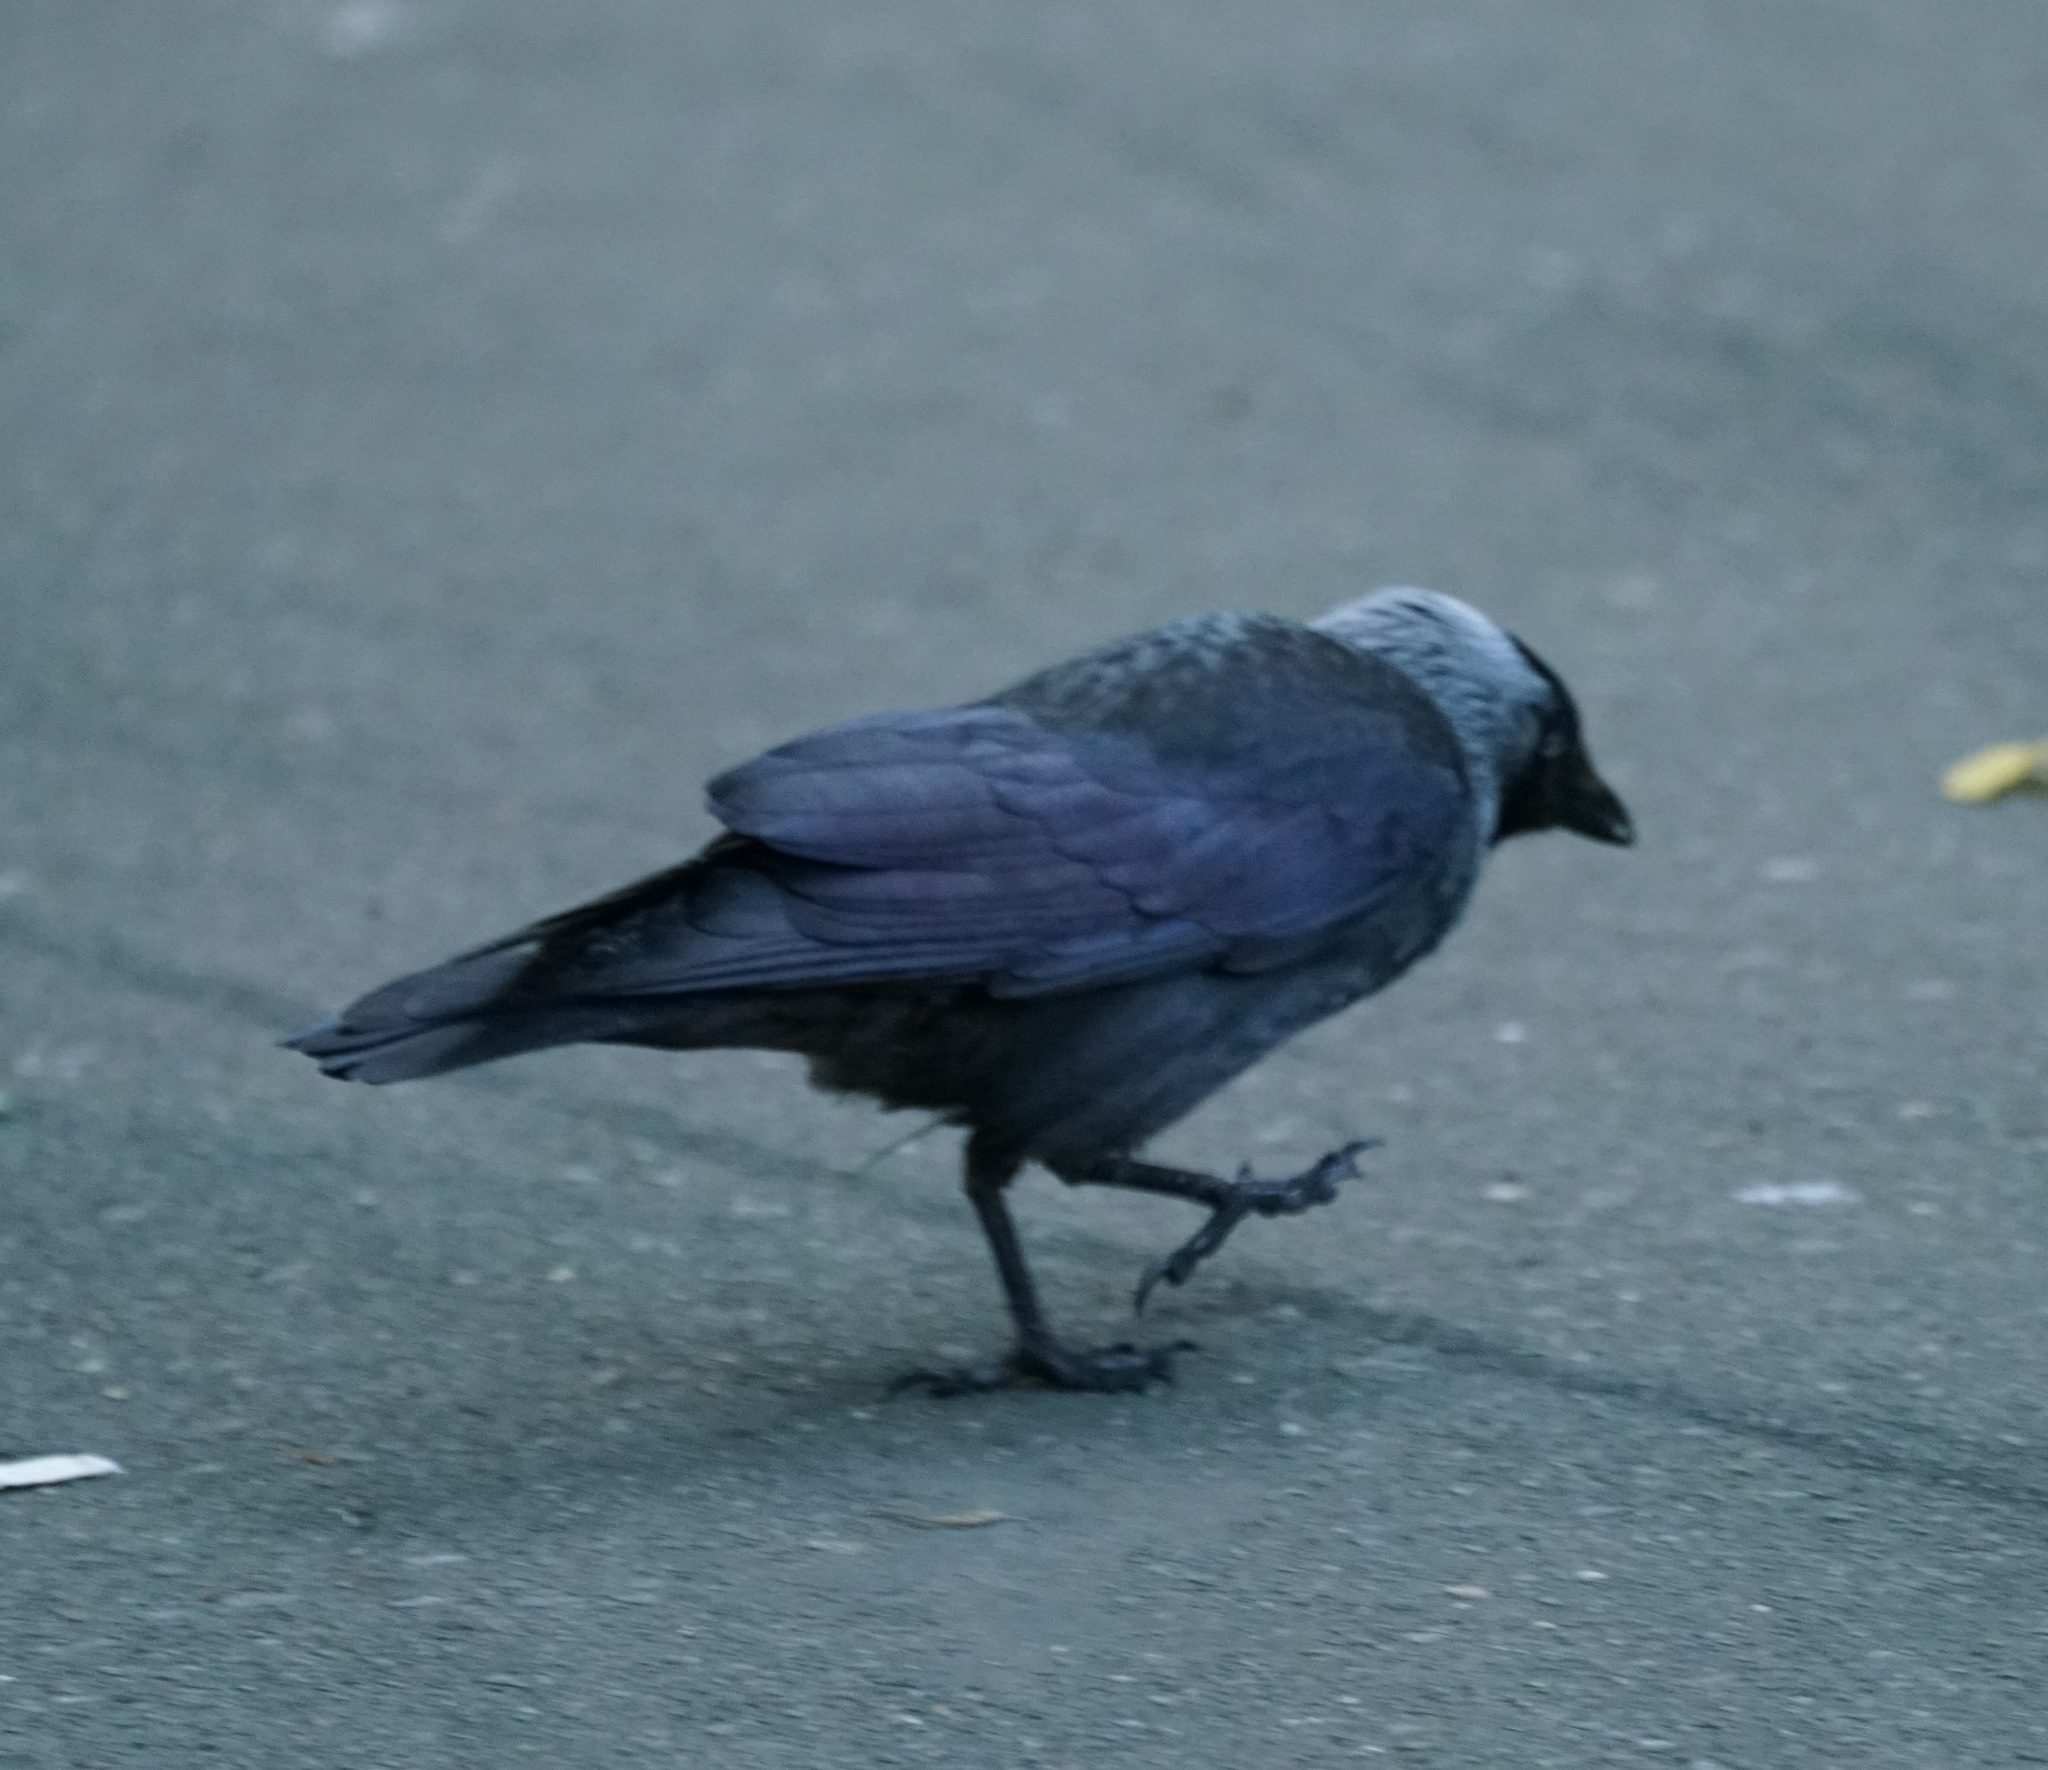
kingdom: Animalia
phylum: Chordata
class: Aves
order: Passeriformes
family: Corvidae
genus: Coloeus
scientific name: Coloeus monedula
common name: Western jackdaw
